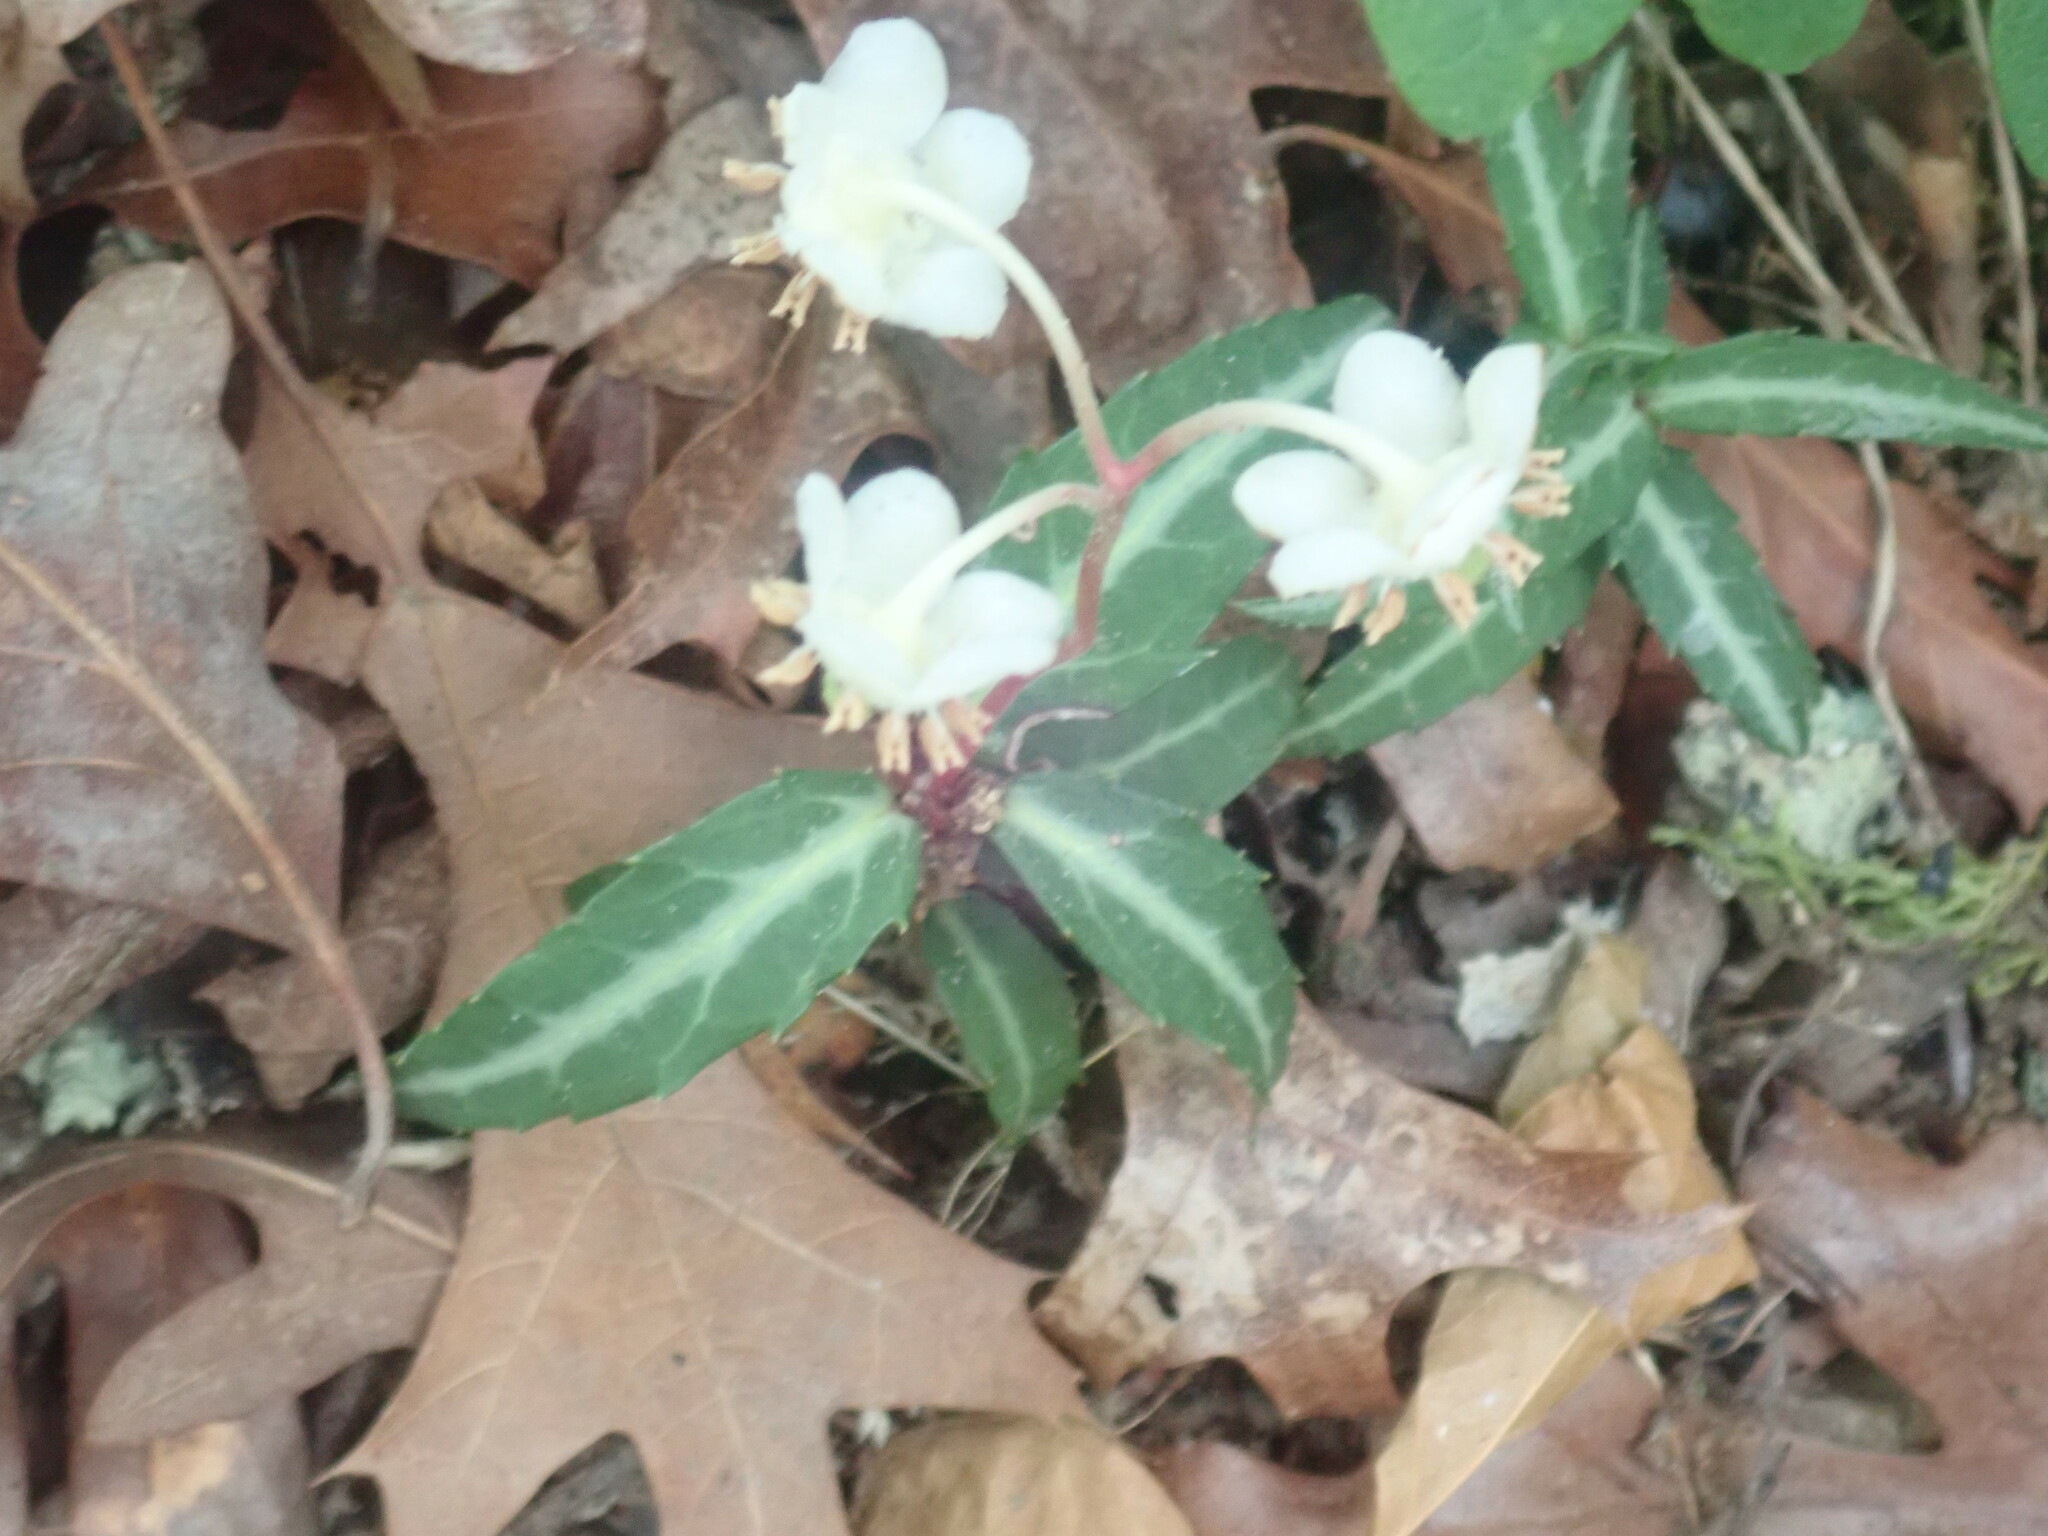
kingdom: Plantae
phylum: Tracheophyta
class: Magnoliopsida
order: Ericales
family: Ericaceae
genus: Chimaphila
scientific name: Chimaphila maculata
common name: Spotted pipsissewa
